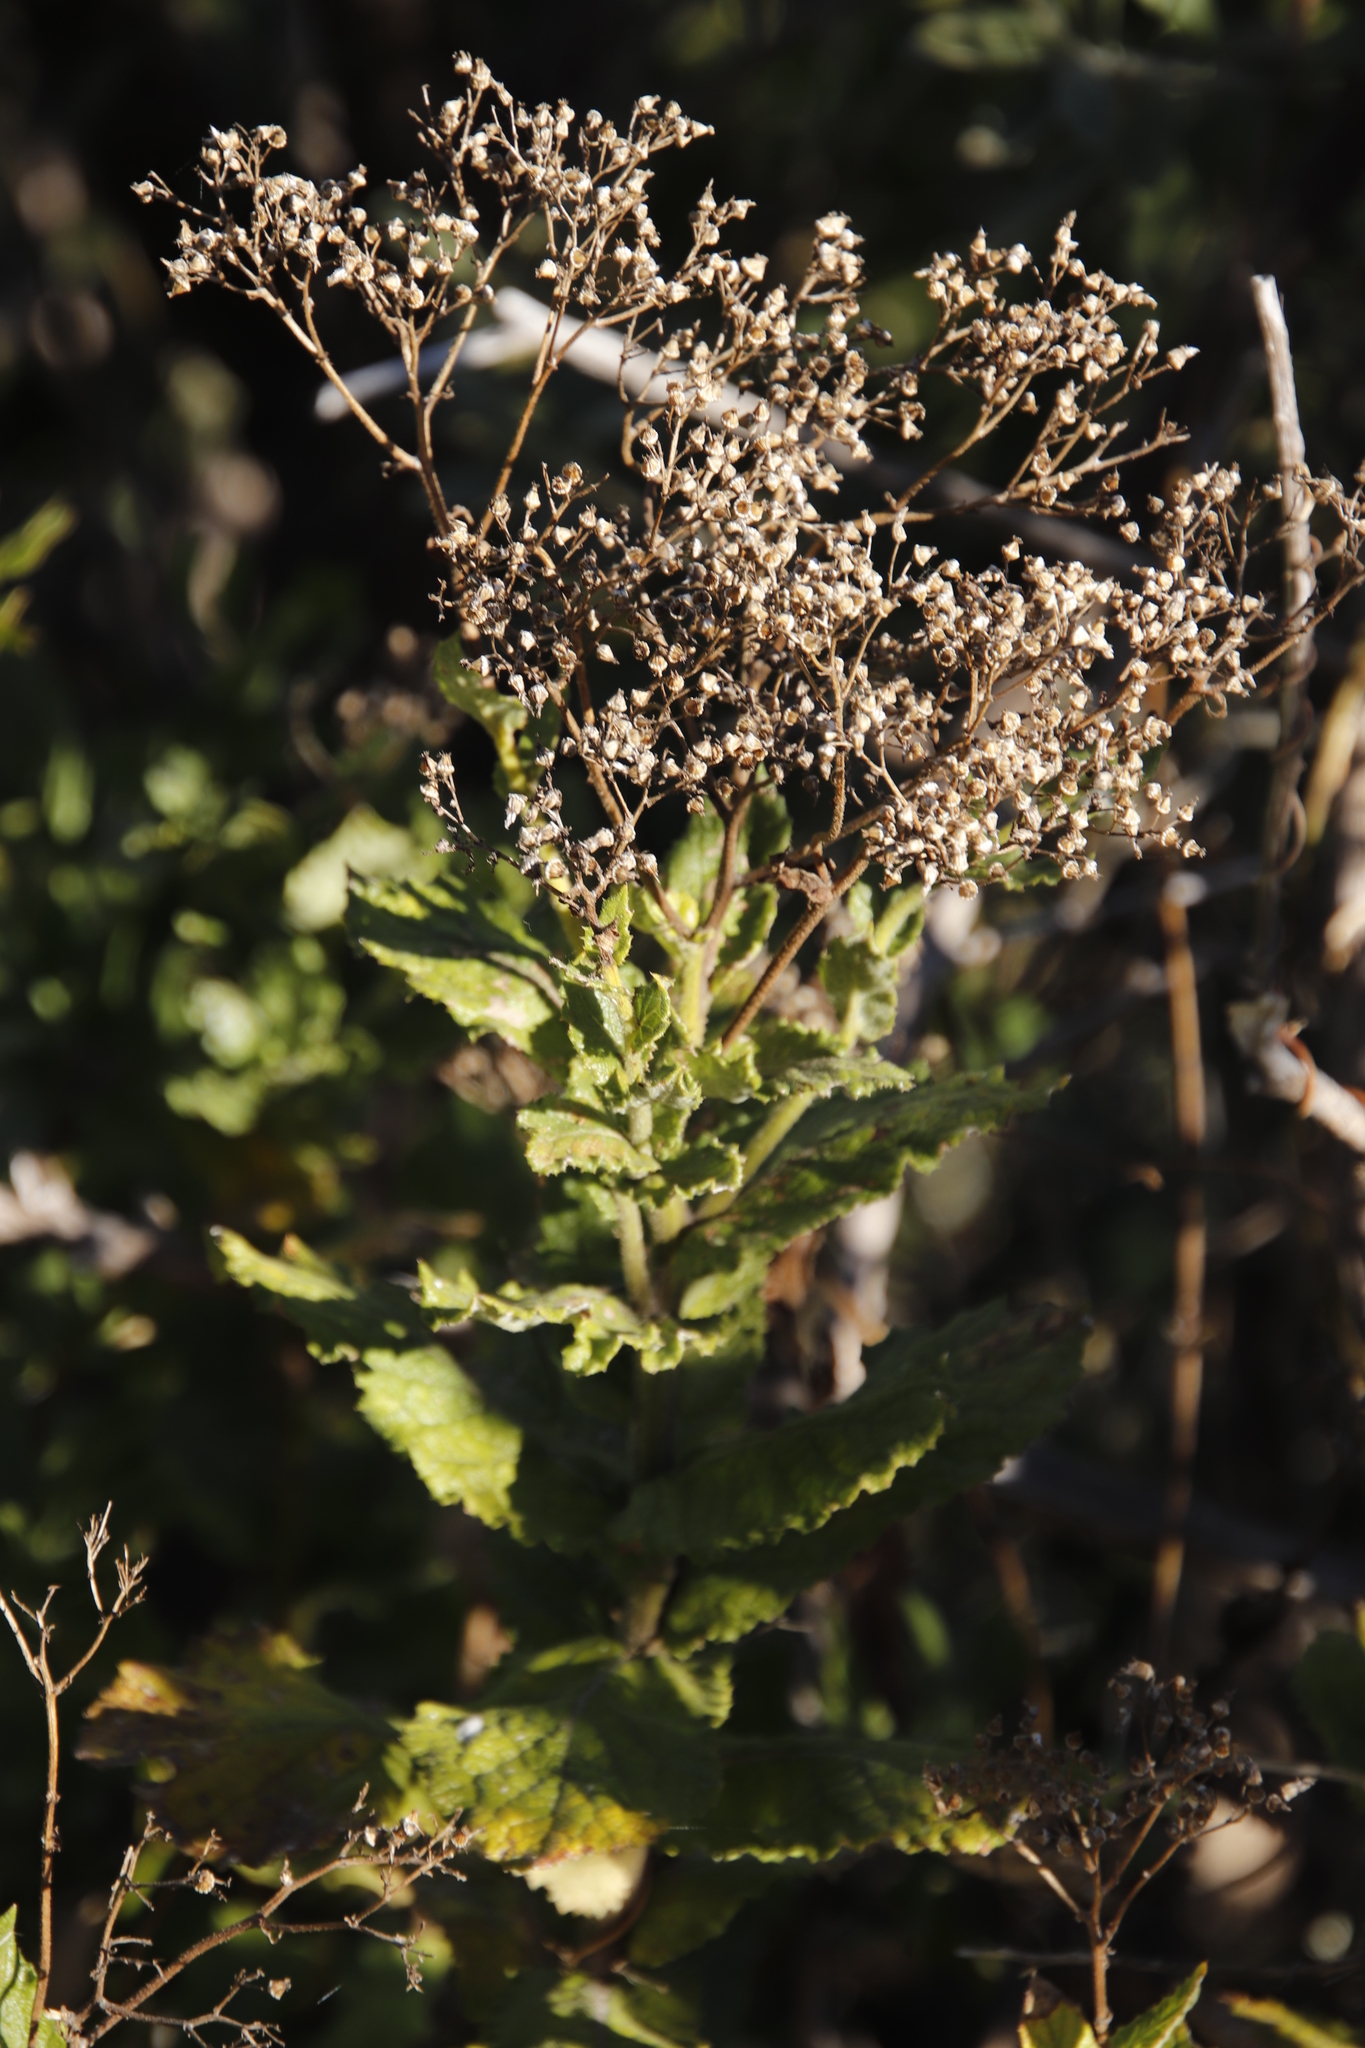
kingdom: Plantae
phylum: Tracheophyta
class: Magnoliopsida
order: Asterales
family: Asteraceae
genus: Senecio
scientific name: Senecio rigidus
